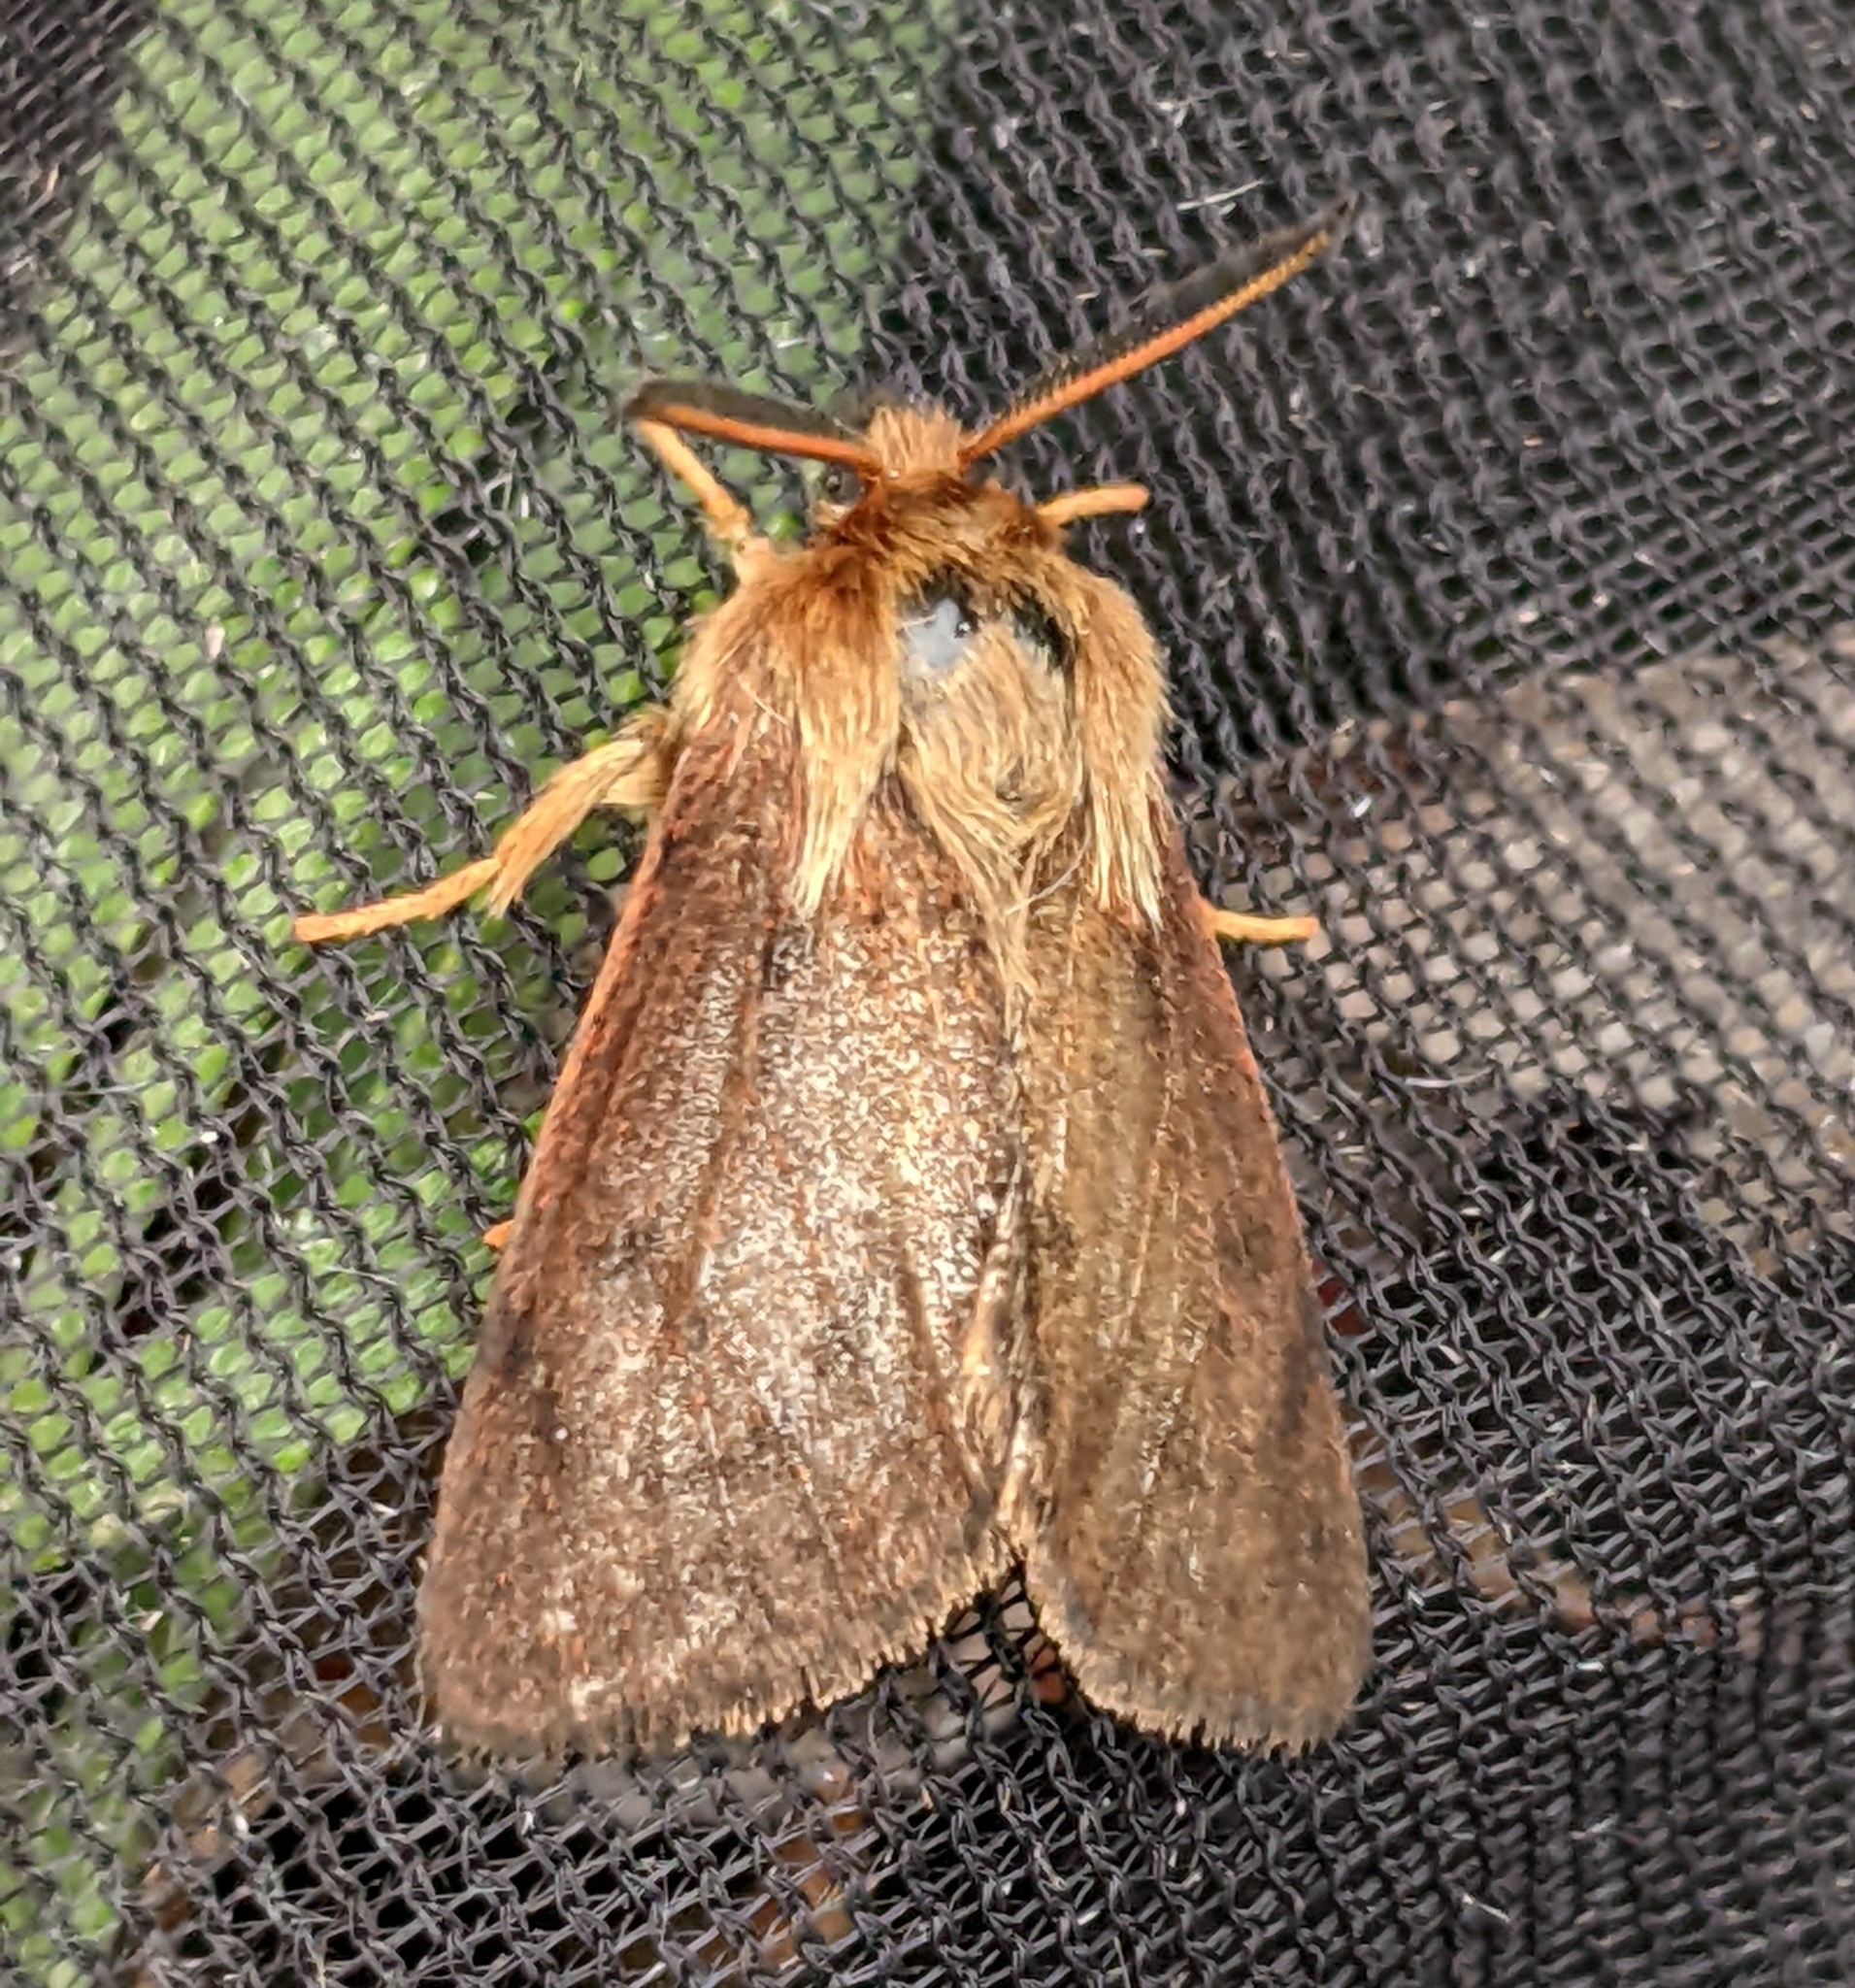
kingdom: Animalia
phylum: Arthropoda
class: Insecta
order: Lepidoptera
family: Erebidae
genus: Spilosoma
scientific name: Spilosoma pteridis
